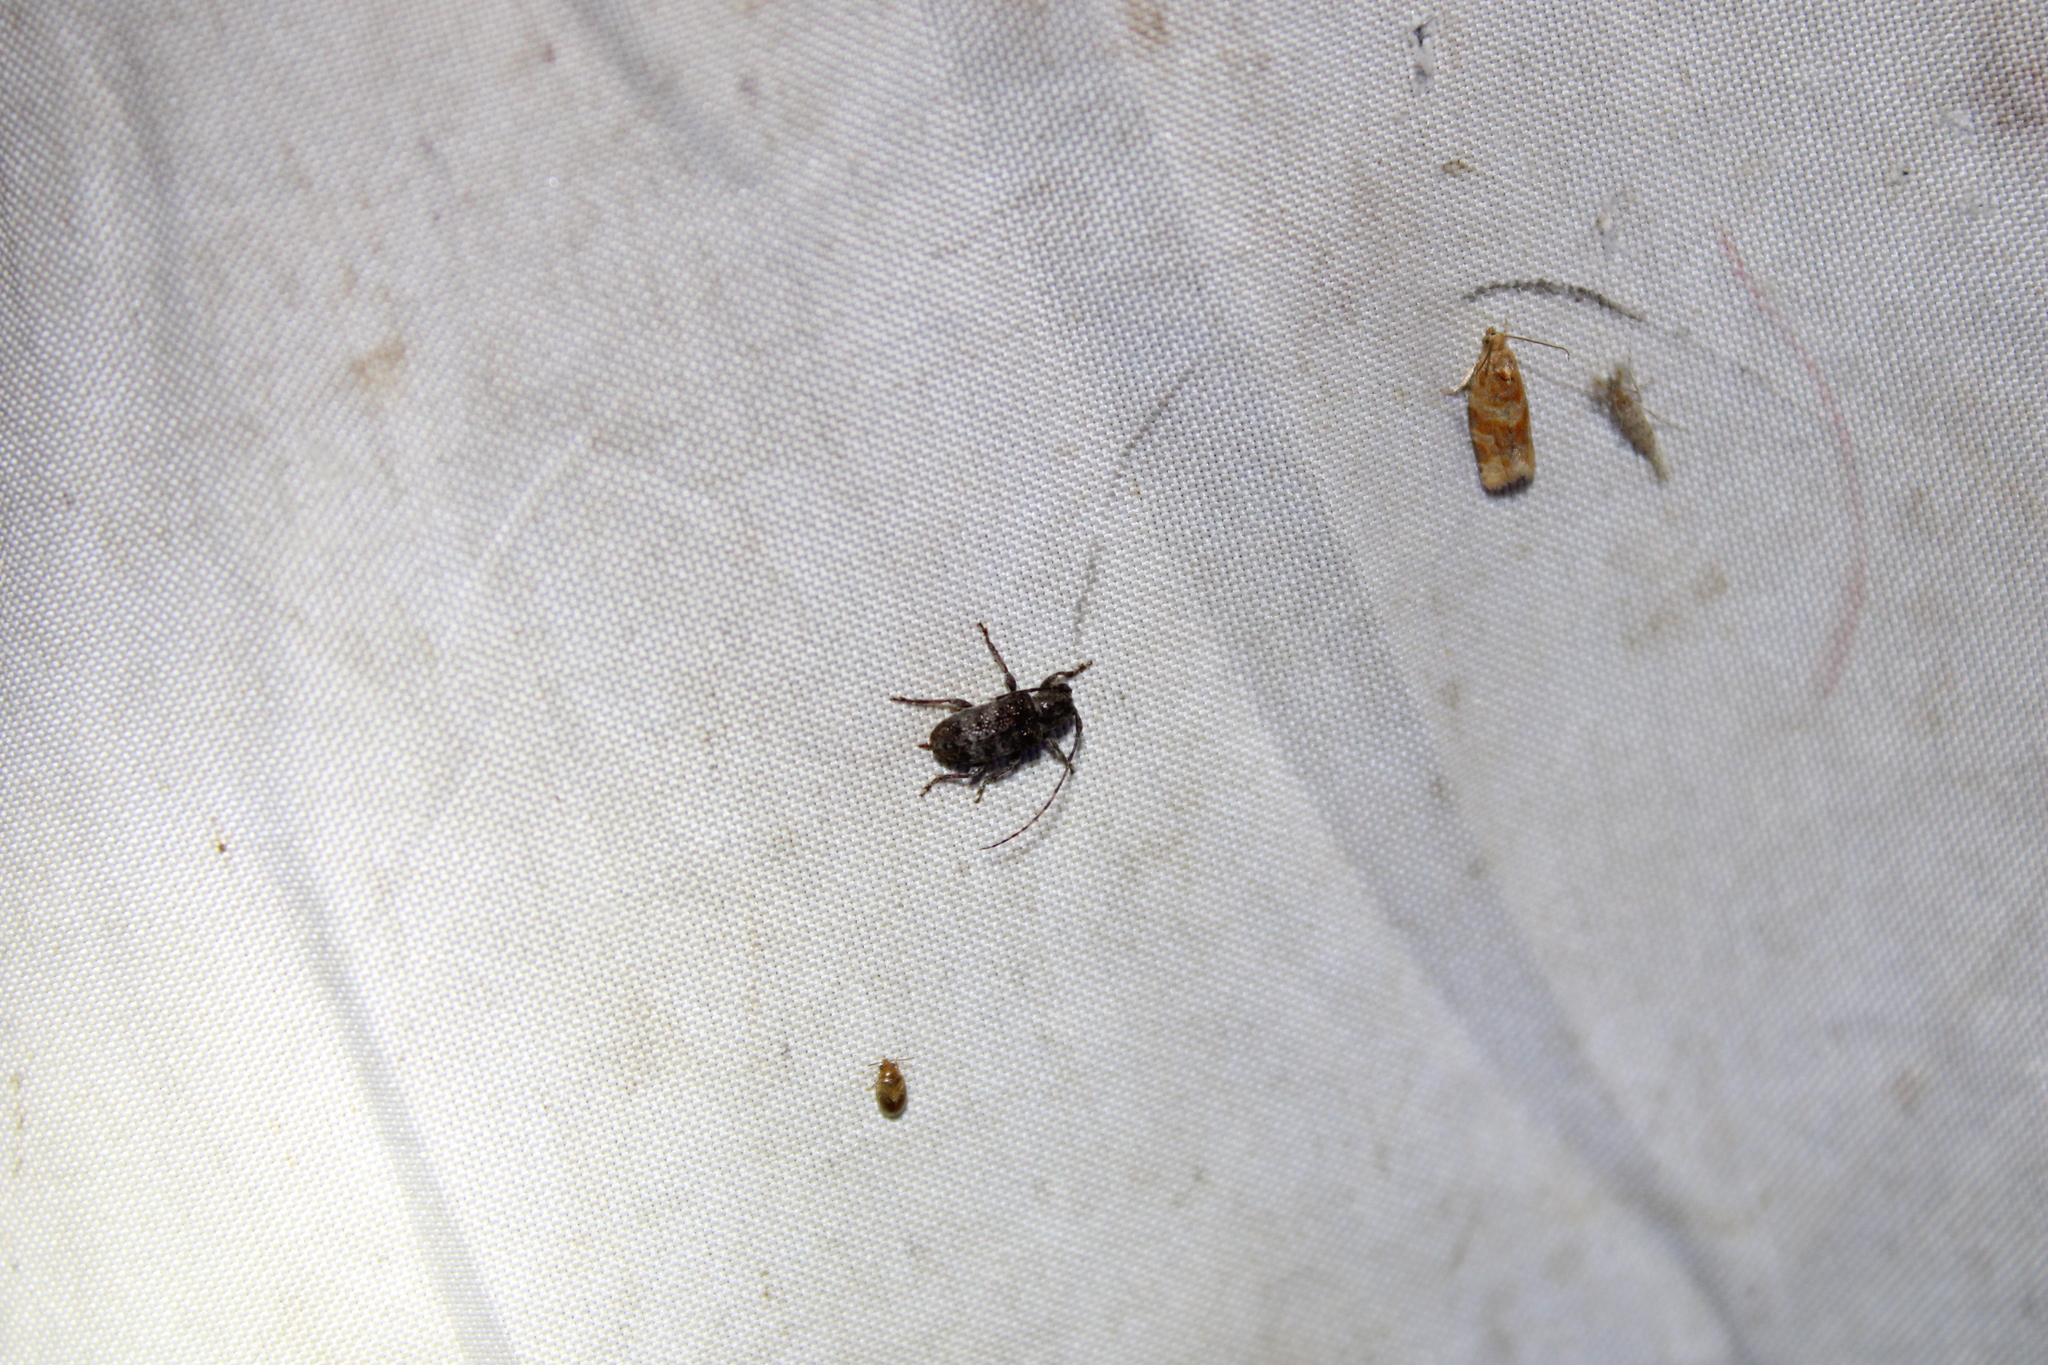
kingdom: Animalia
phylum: Arthropoda
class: Insecta
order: Coleoptera
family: Cerambycidae
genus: Ecyrus
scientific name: Ecyrus dasycerus
